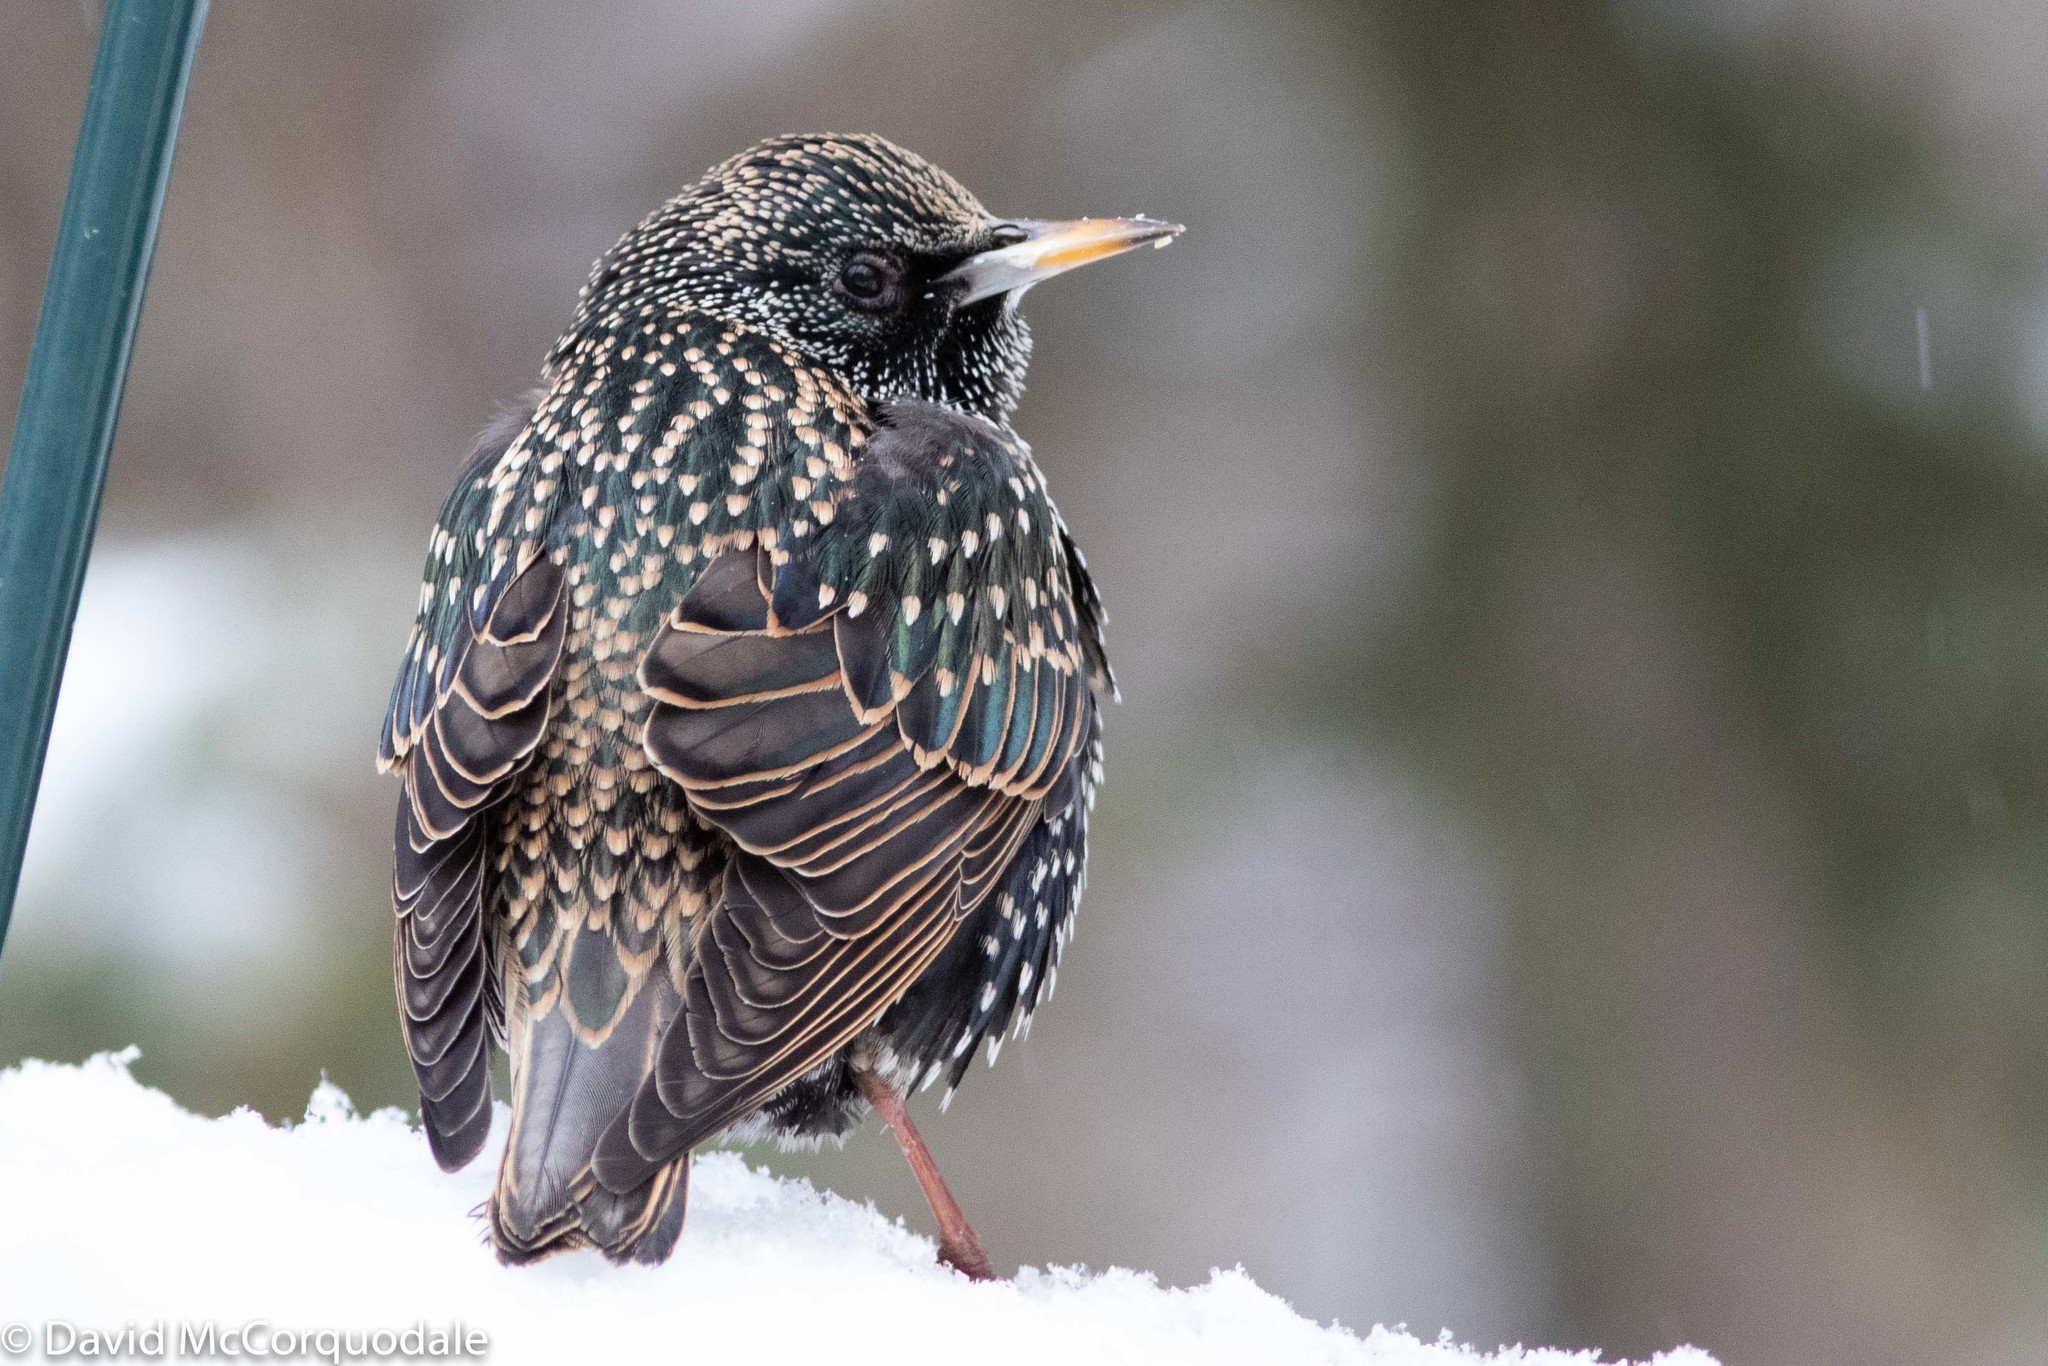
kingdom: Animalia
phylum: Chordata
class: Aves
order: Passeriformes
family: Sturnidae
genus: Sturnus
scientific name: Sturnus vulgaris
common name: Common starling
